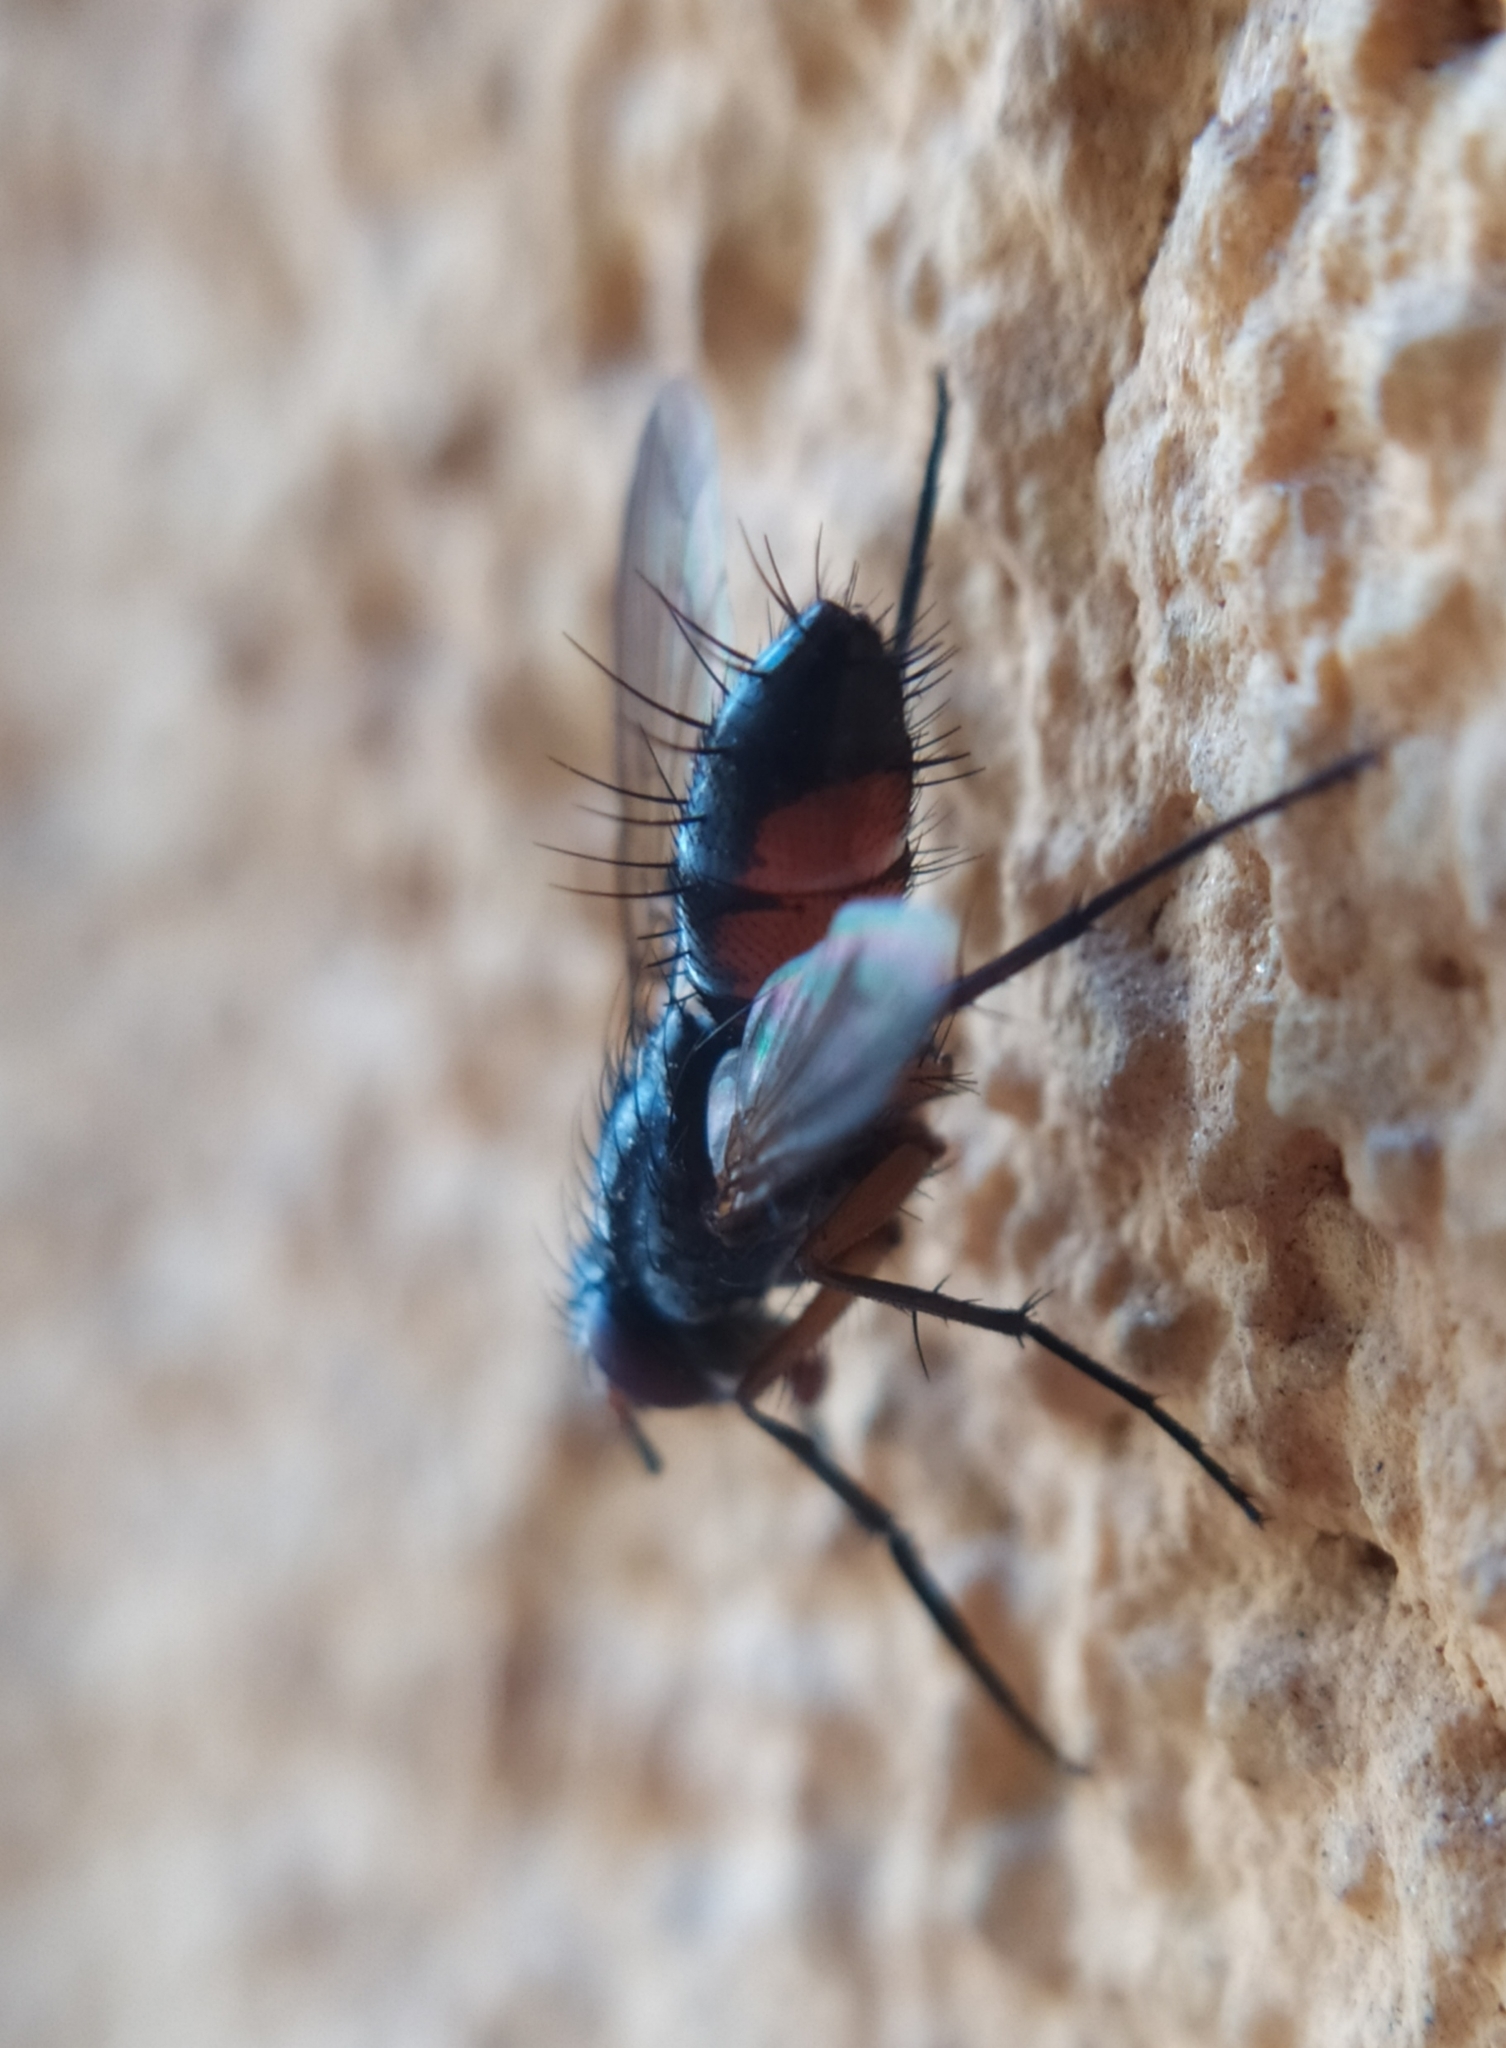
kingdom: Animalia
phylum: Arthropoda
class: Insecta
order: Diptera
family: Tachinidae
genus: Mintho
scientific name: Mintho rufiventris
